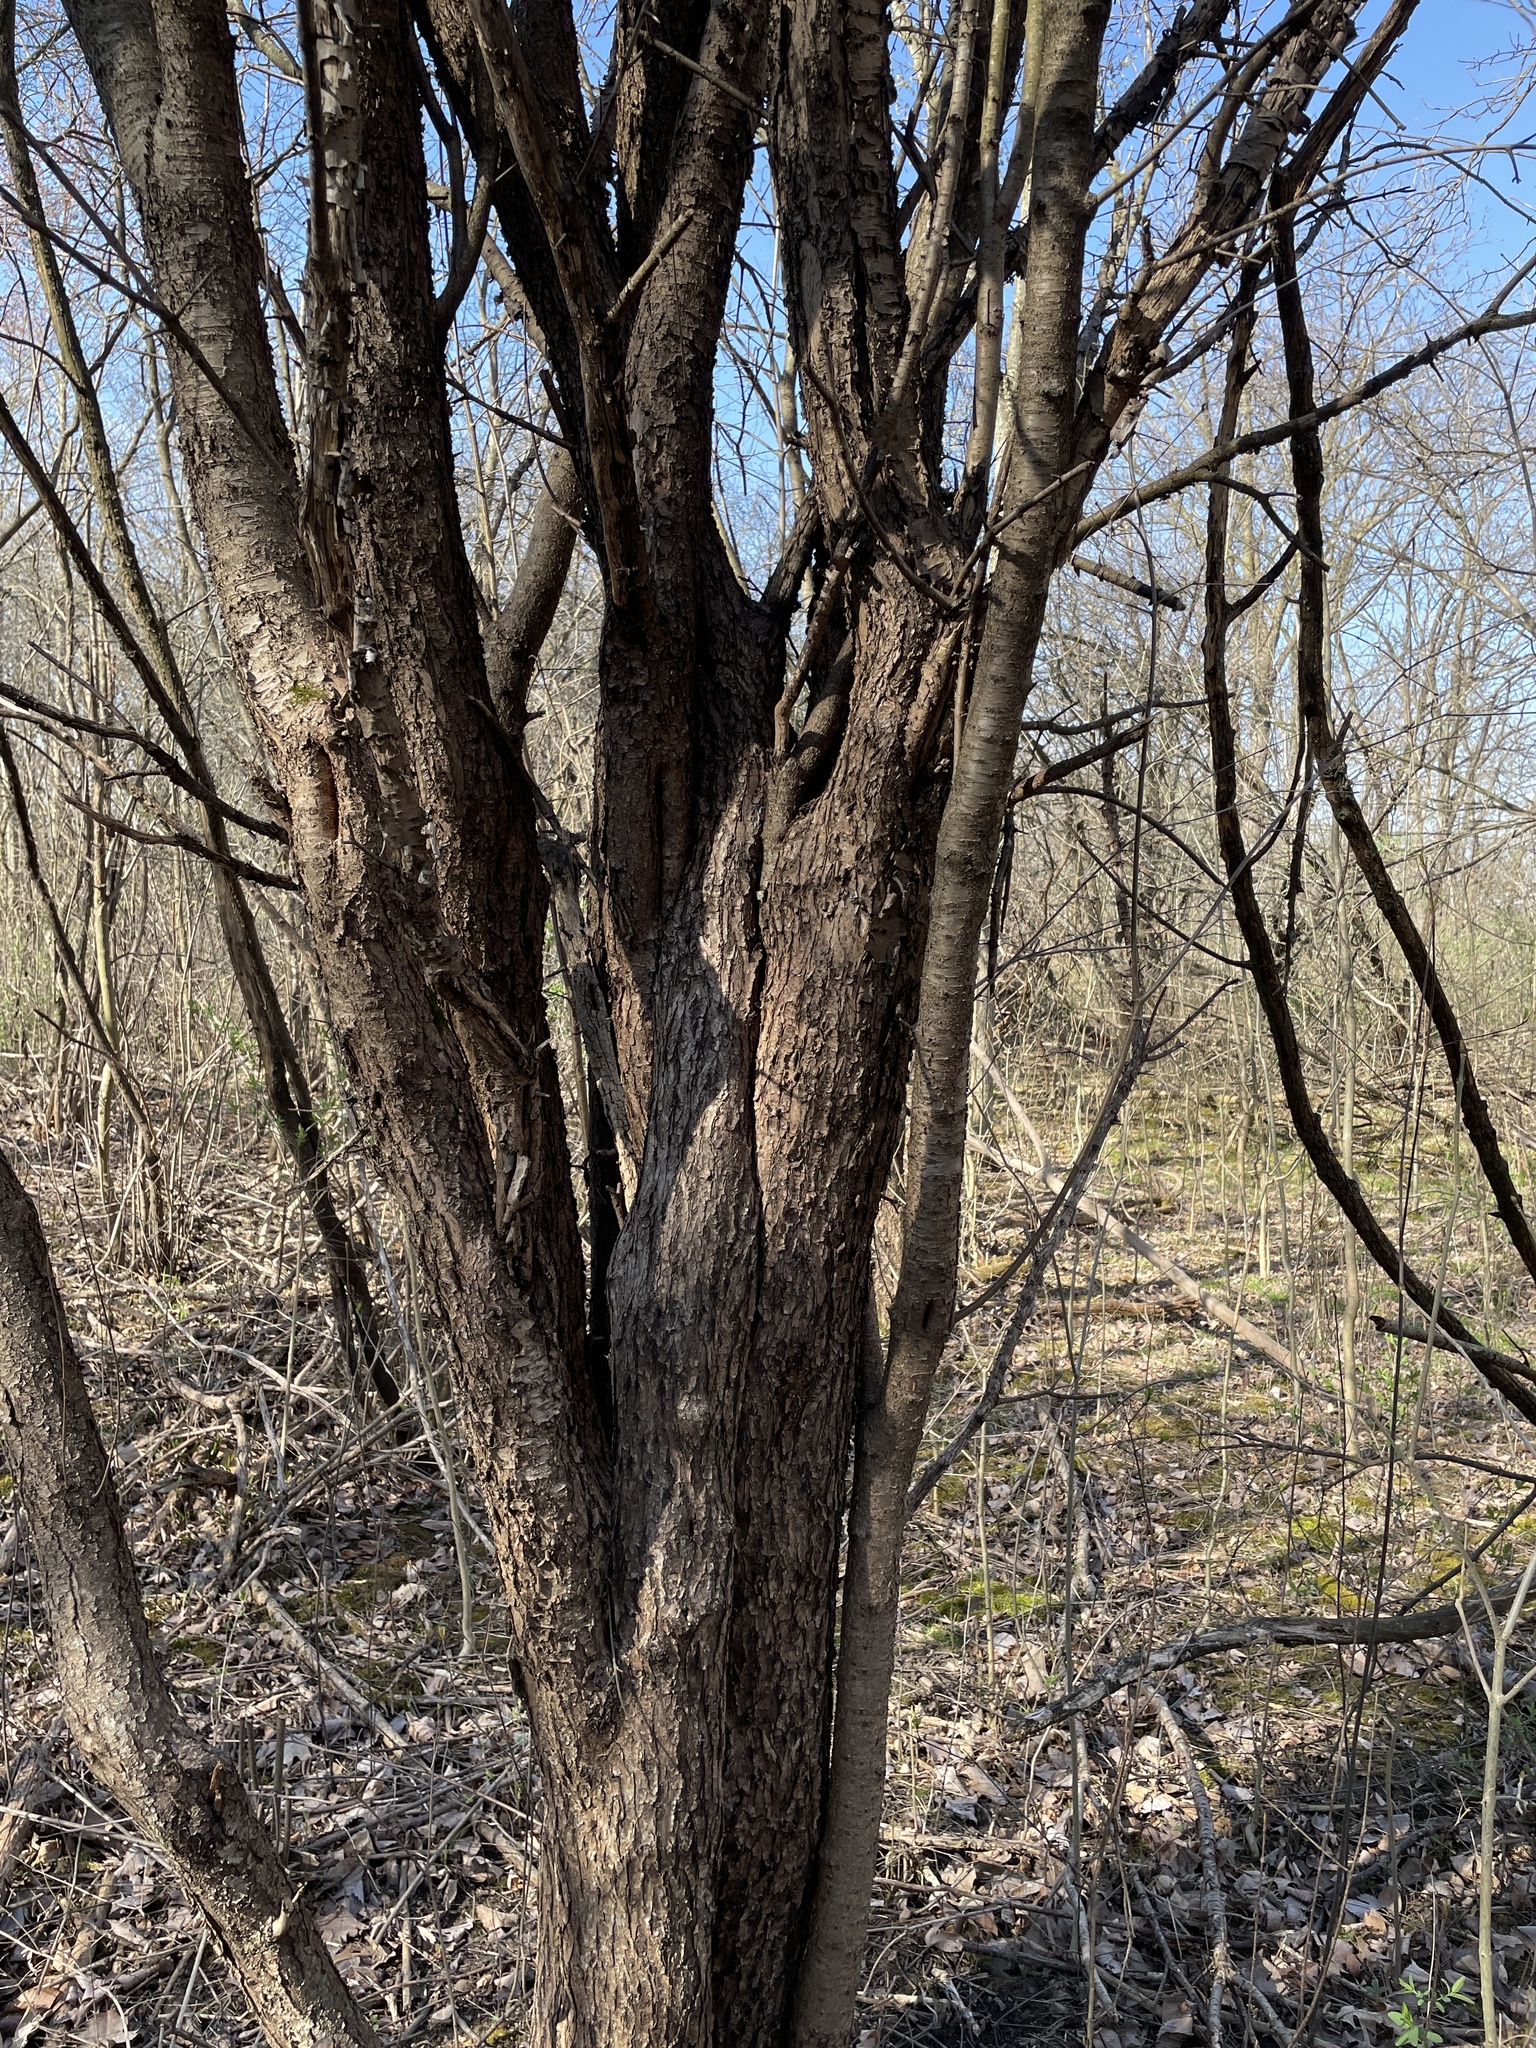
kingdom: Plantae
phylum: Tracheophyta
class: Magnoliopsida
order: Rosales
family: Rhamnaceae
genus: Rhamnus
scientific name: Rhamnus cathartica
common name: Common buckthorn
